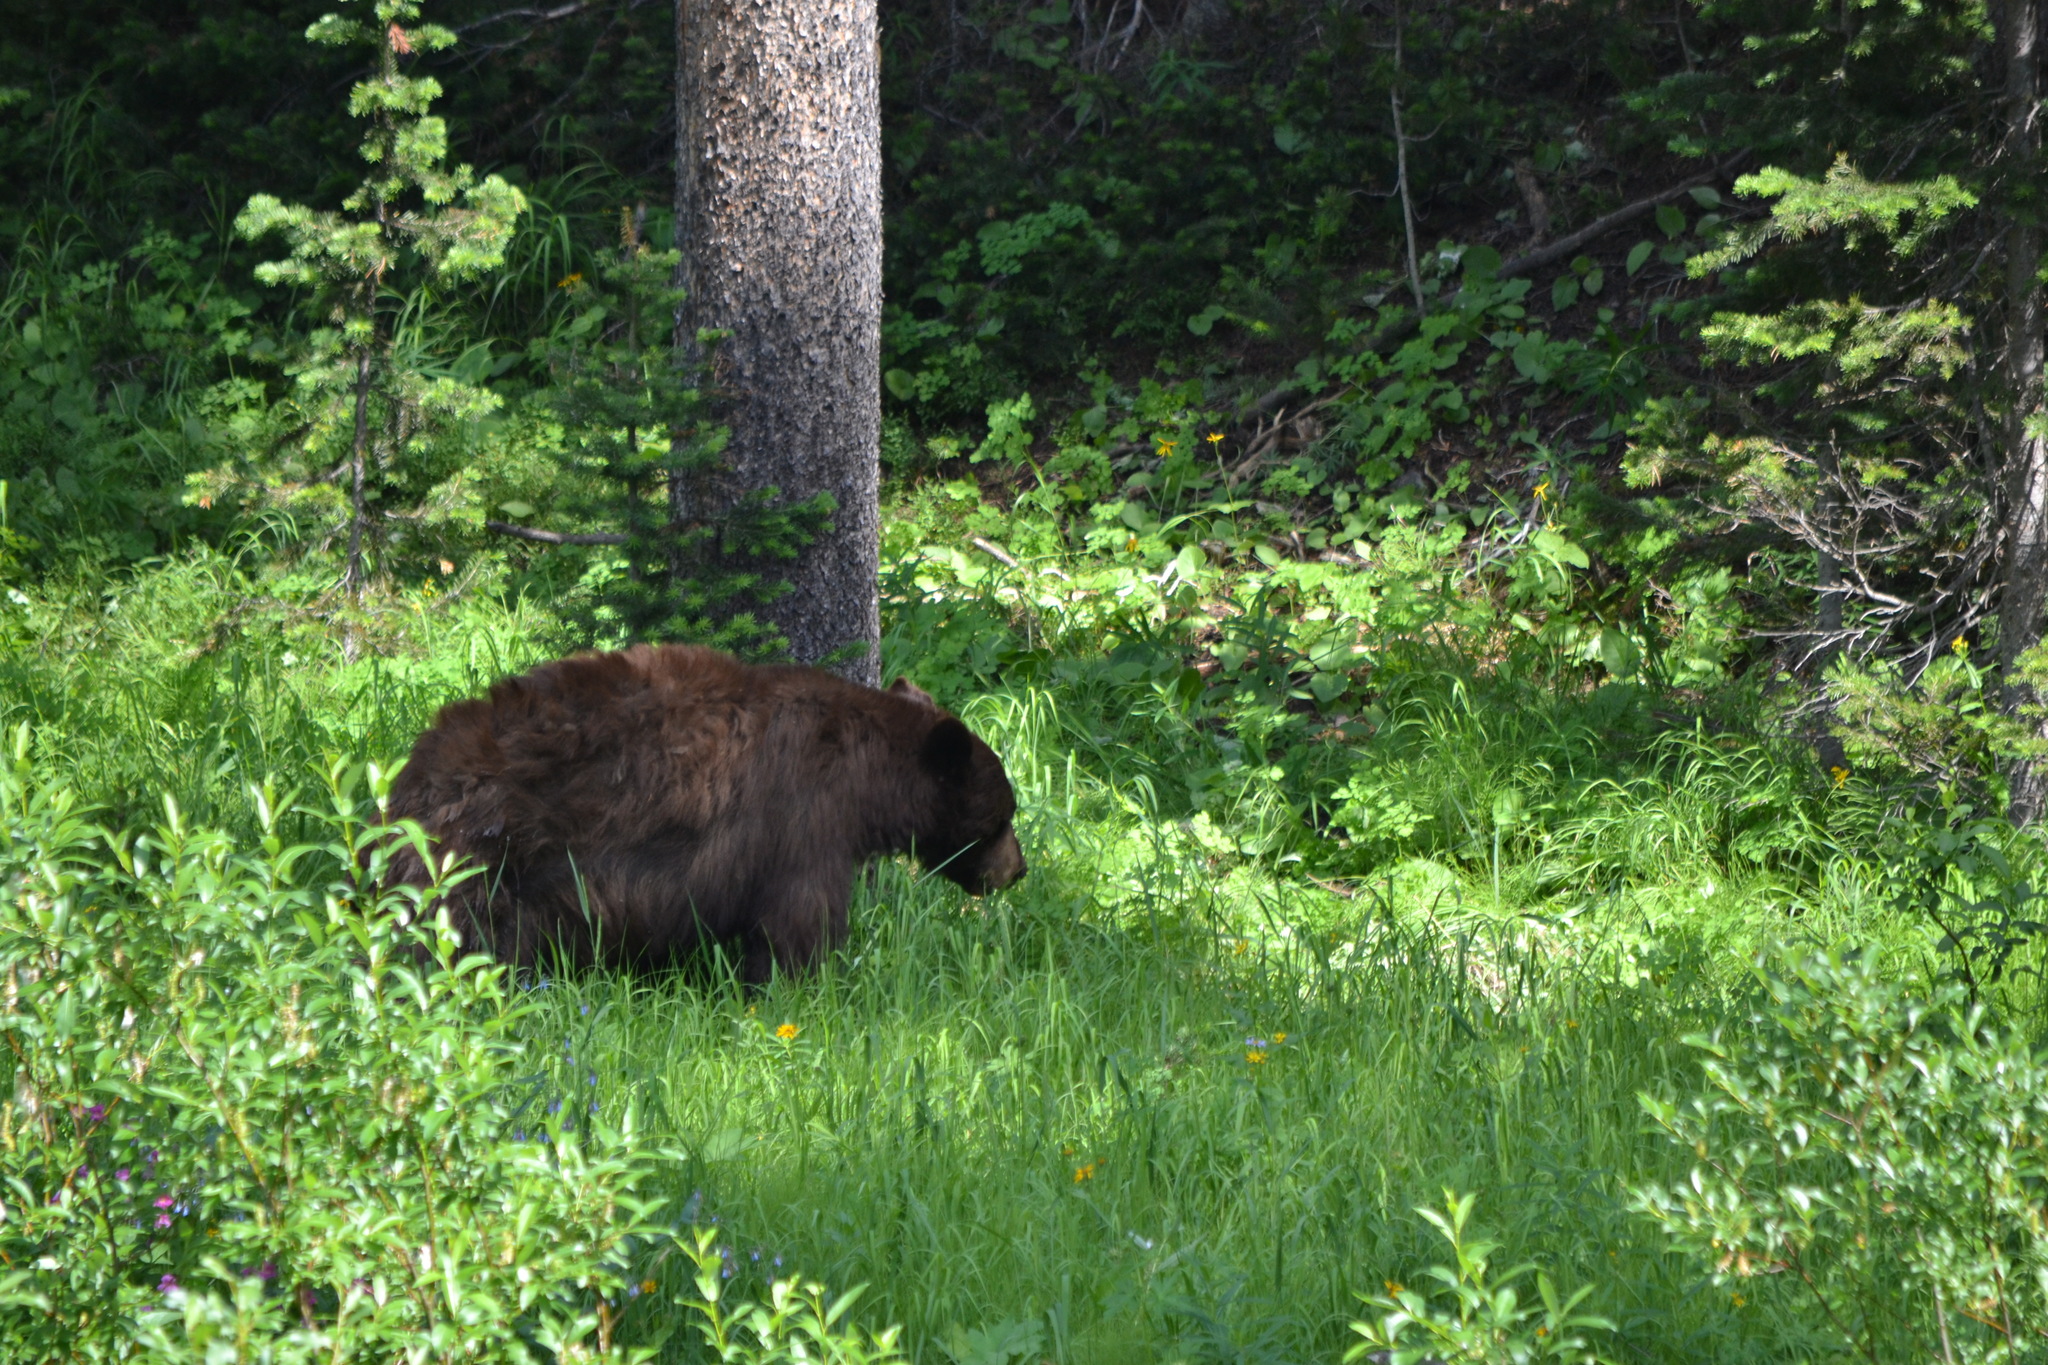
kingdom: Animalia
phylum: Chordata
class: Mammalia
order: Carnivora
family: Ursidae
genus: Ursus
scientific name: Ursus americanus
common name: American black bear
